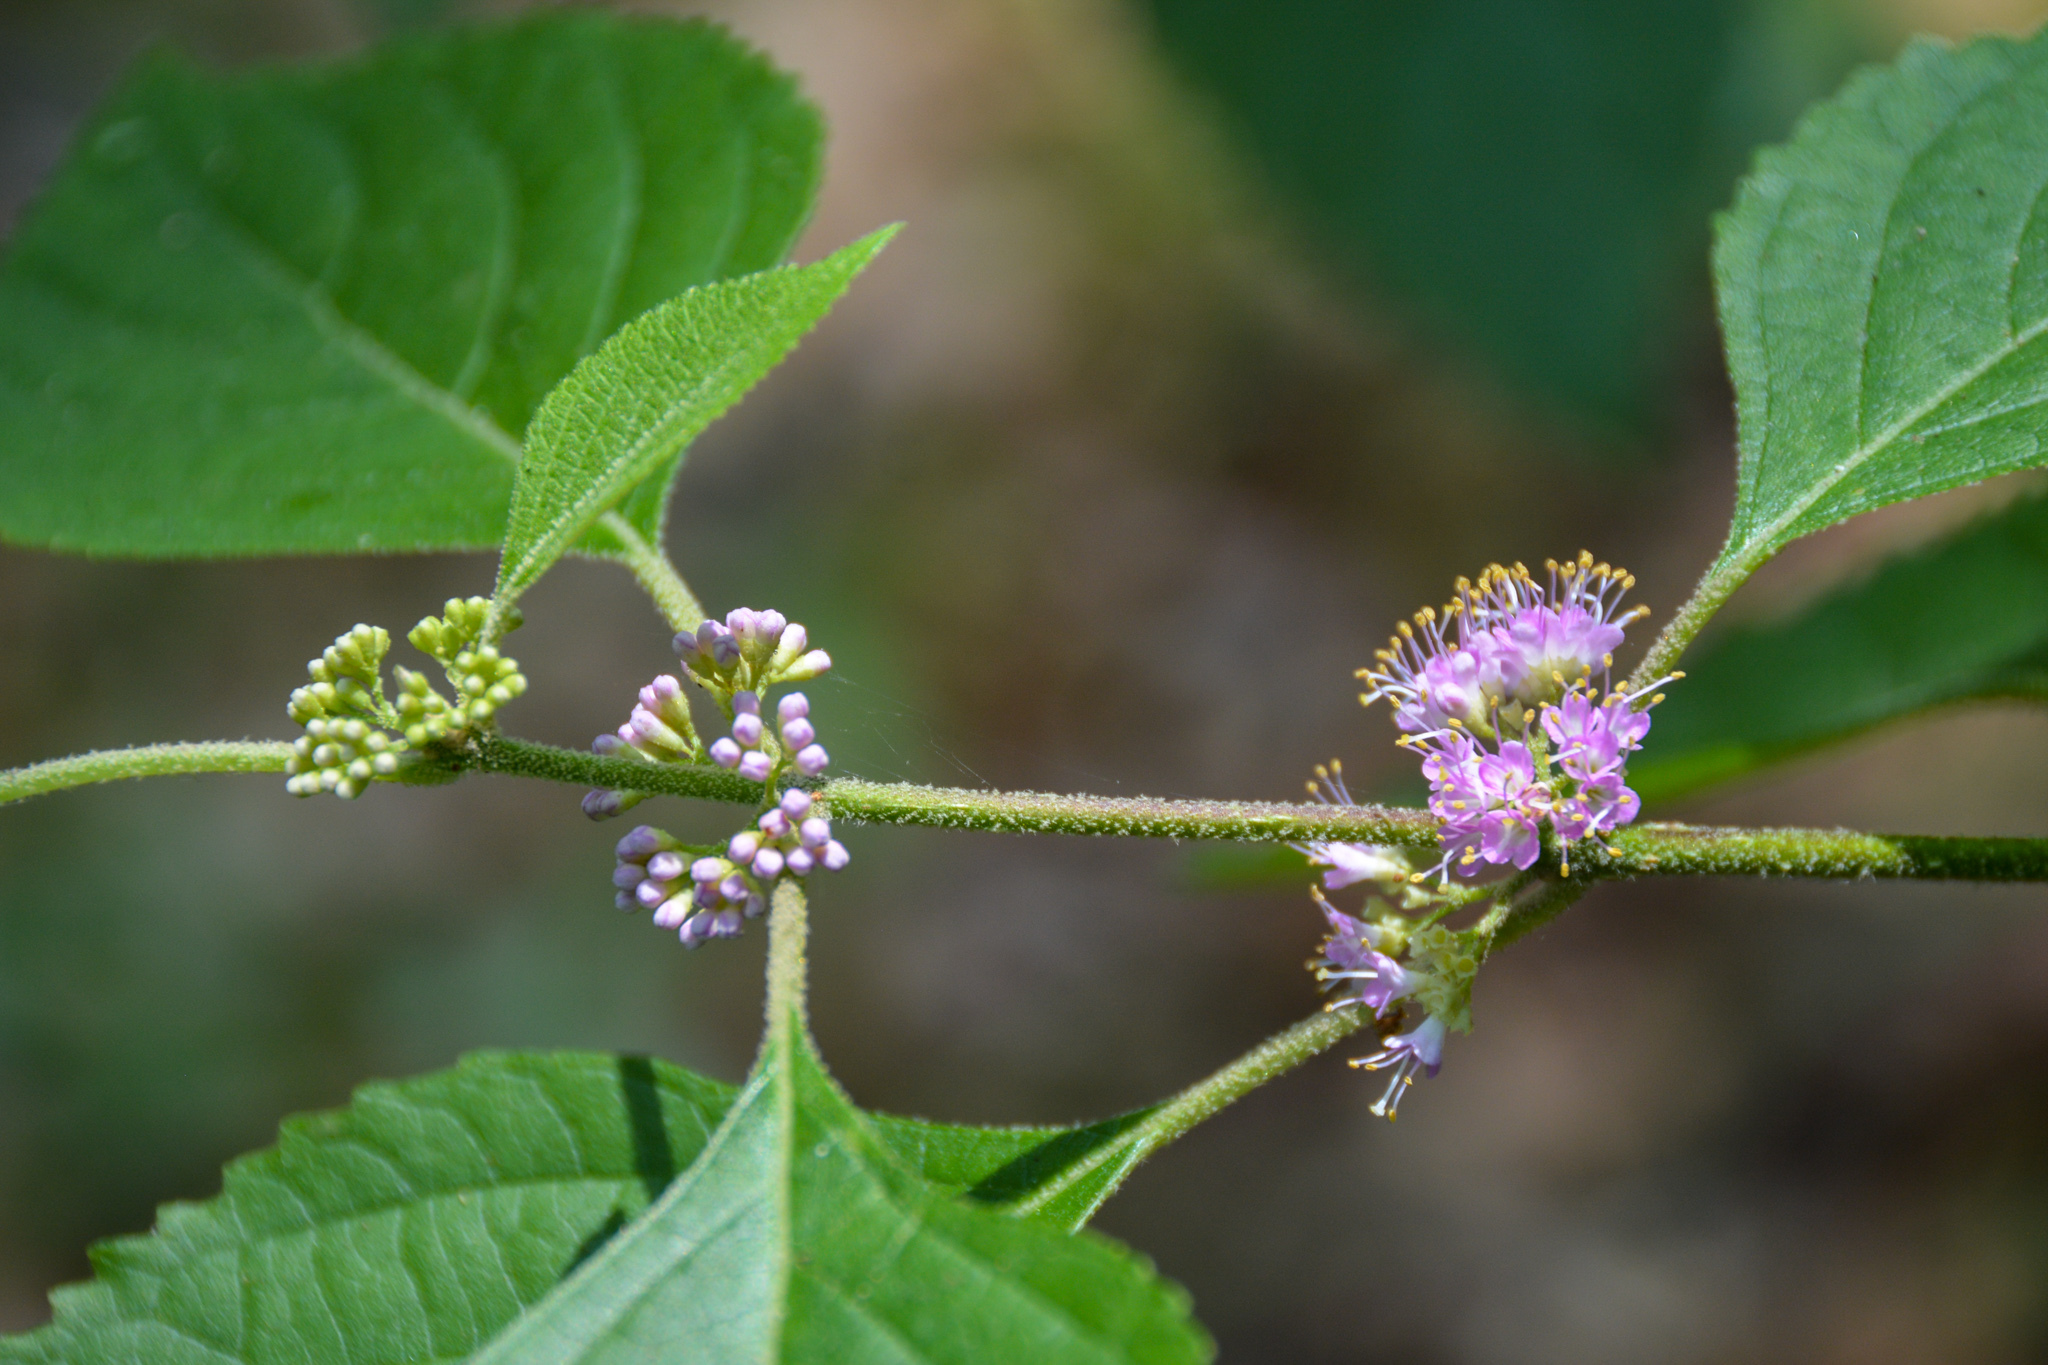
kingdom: Plantae
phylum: Tracheophyta
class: Magnoliopsida
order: Lamiales
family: Lamiaceae
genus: Callicarpa
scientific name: Callicarpa americana
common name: American beautyberry
